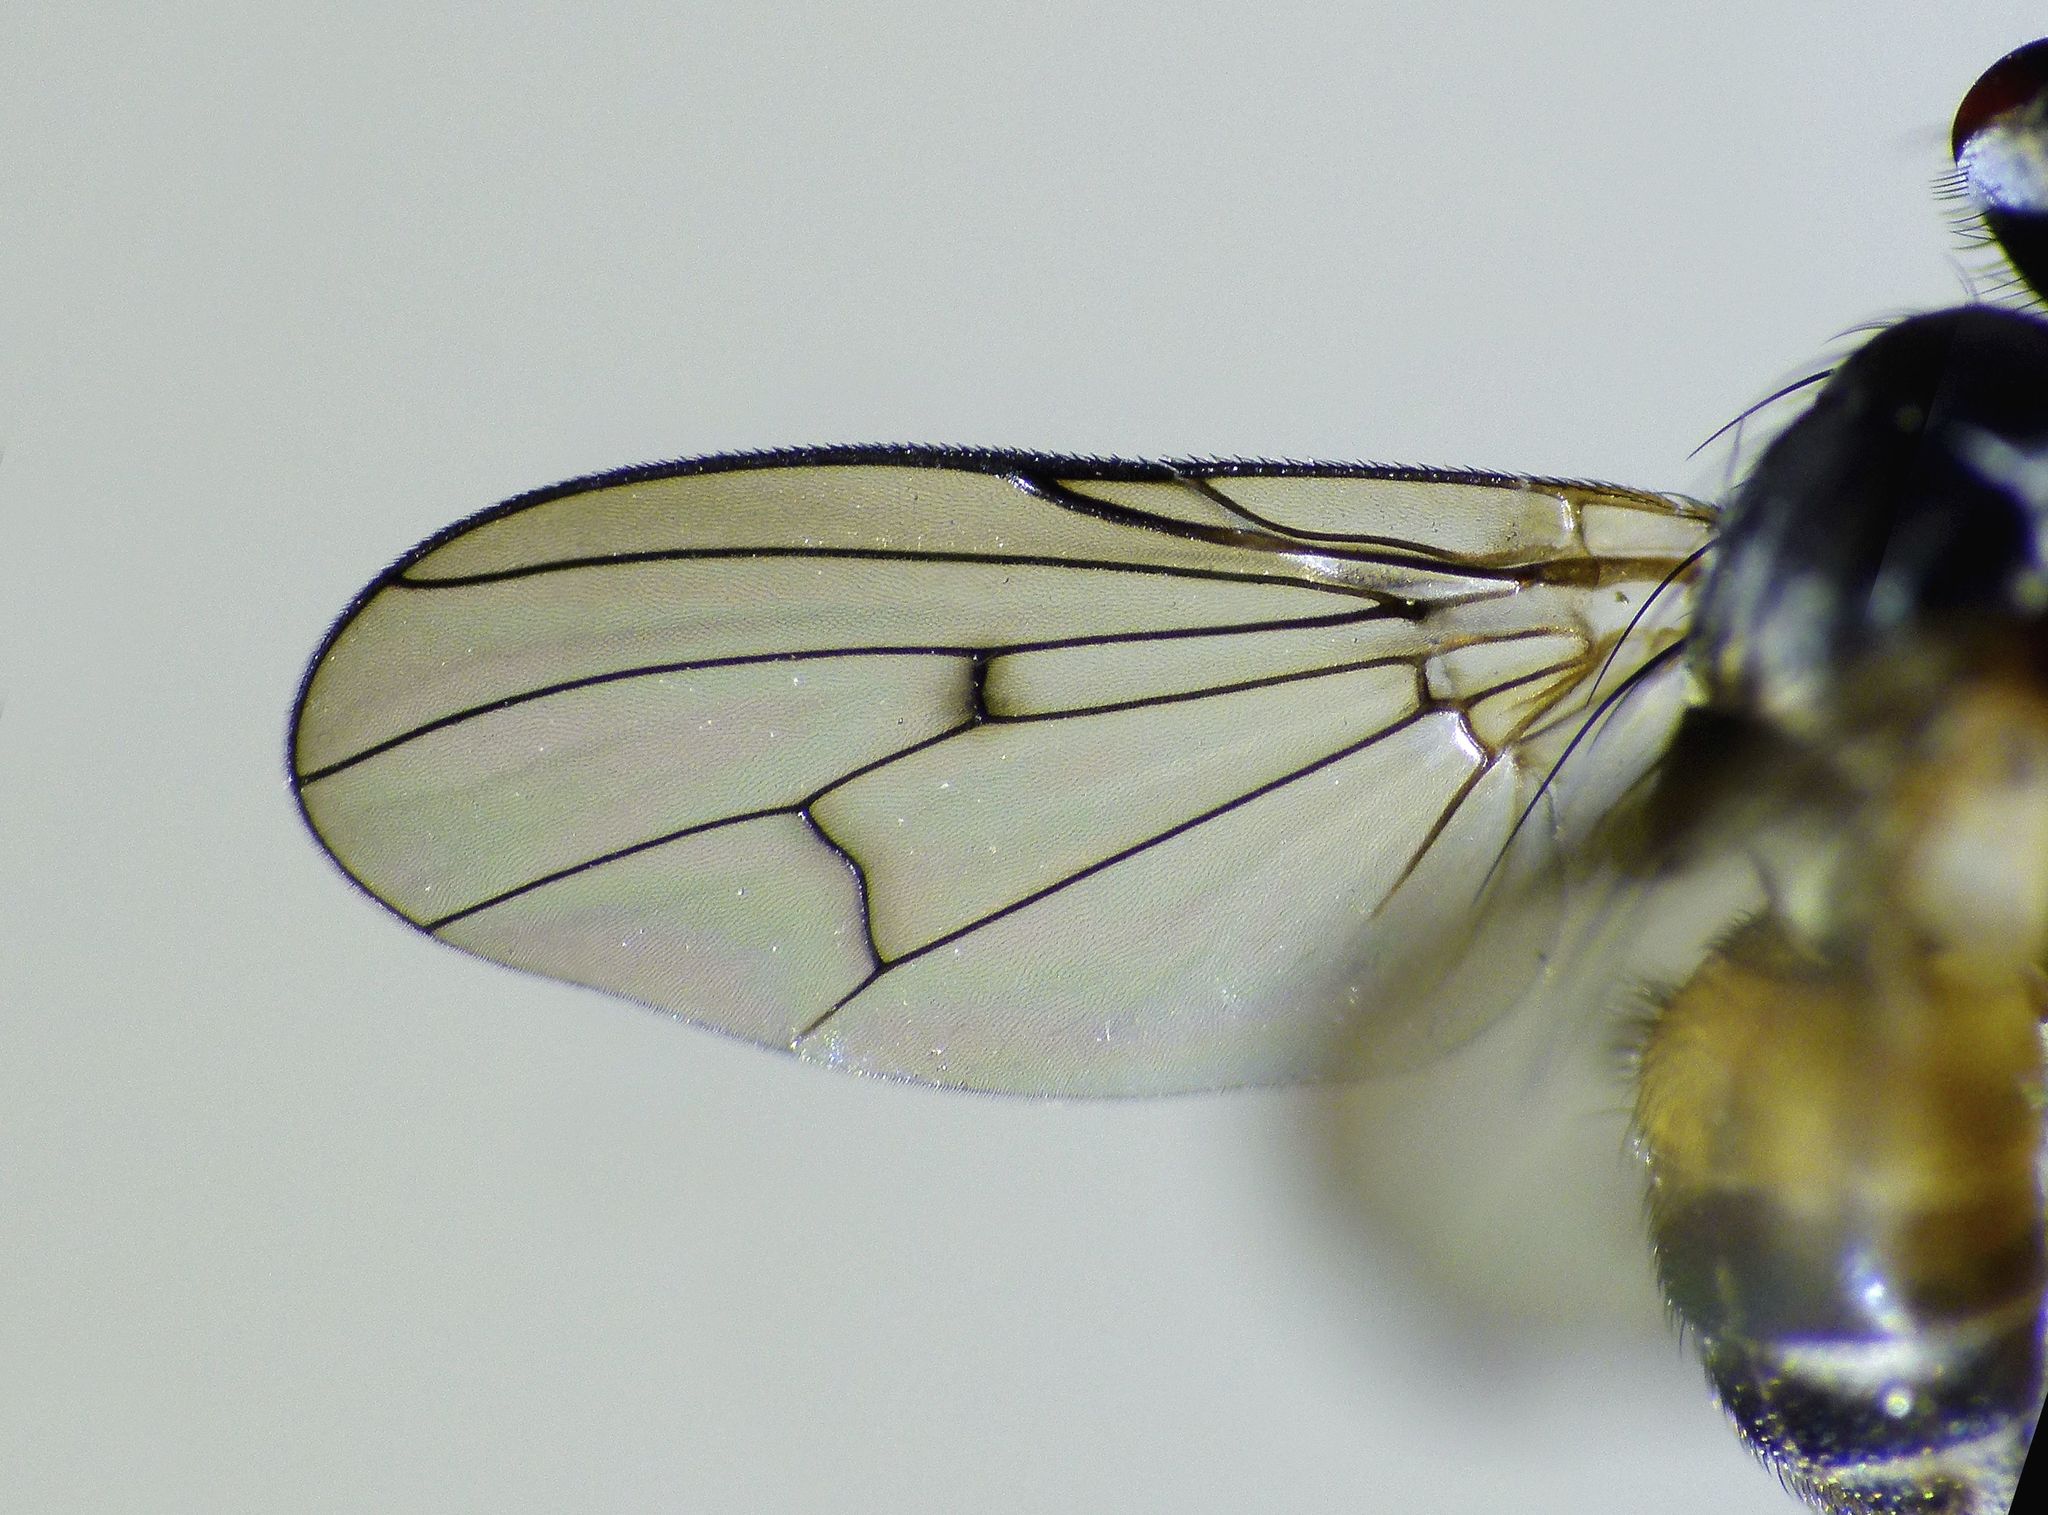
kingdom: Animalia
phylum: Arthropoda
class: Insecta
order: Diptera
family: Muscidae
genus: Spilogona
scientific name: Spilogona flaviventris
